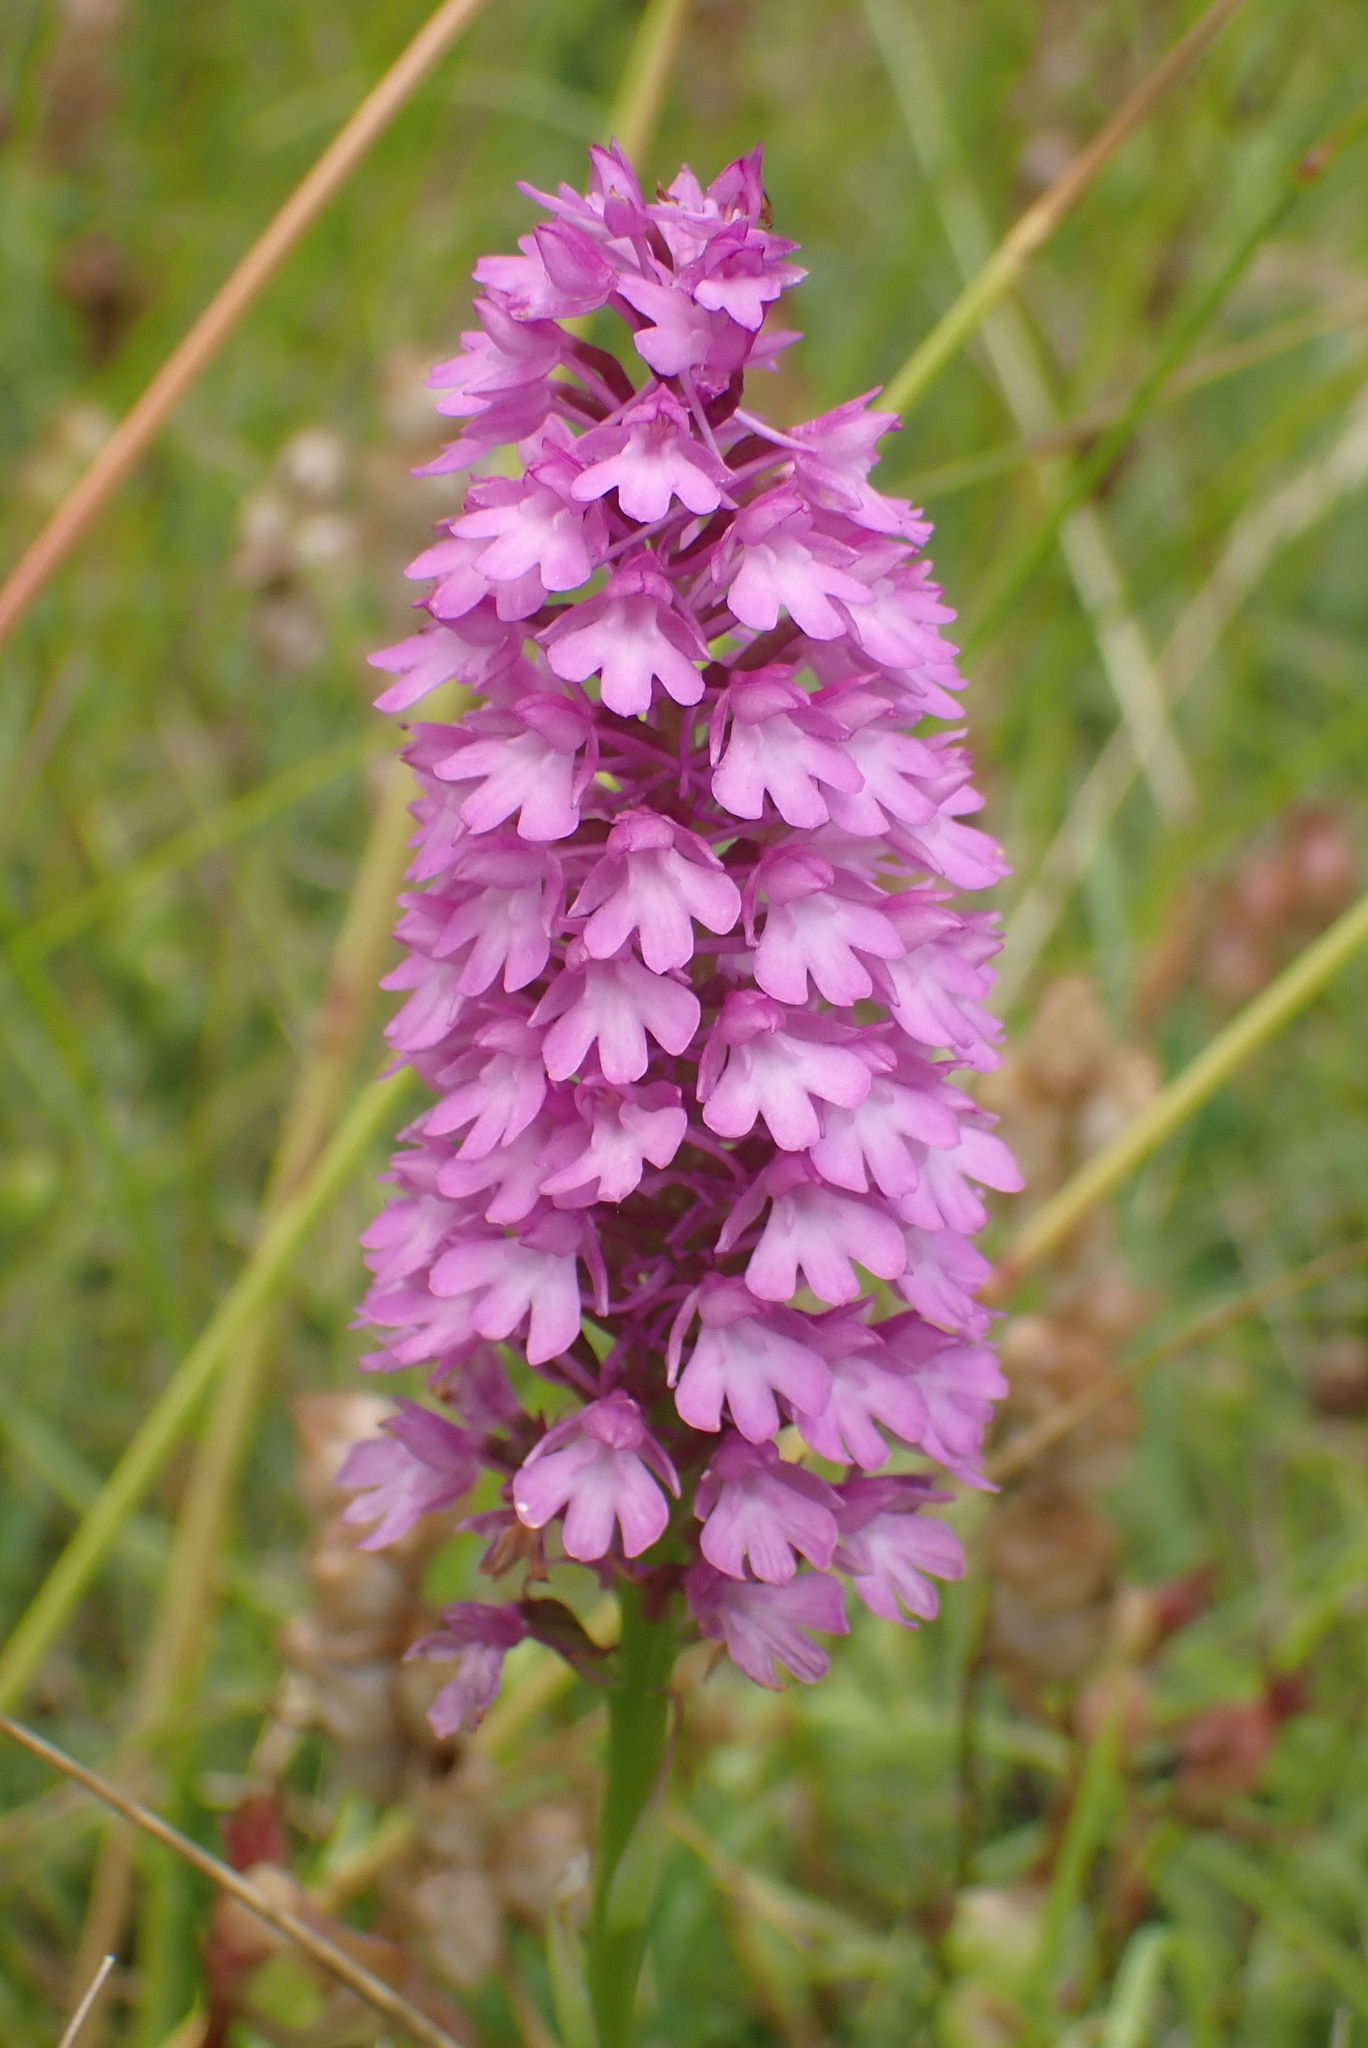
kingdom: Plantae
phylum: Tracheophyta
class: Liliopsida
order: Asparagales
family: Orchidaceae
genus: Anacamptis
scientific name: Anacamptis pyramidalis
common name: Pyramidal orchid
